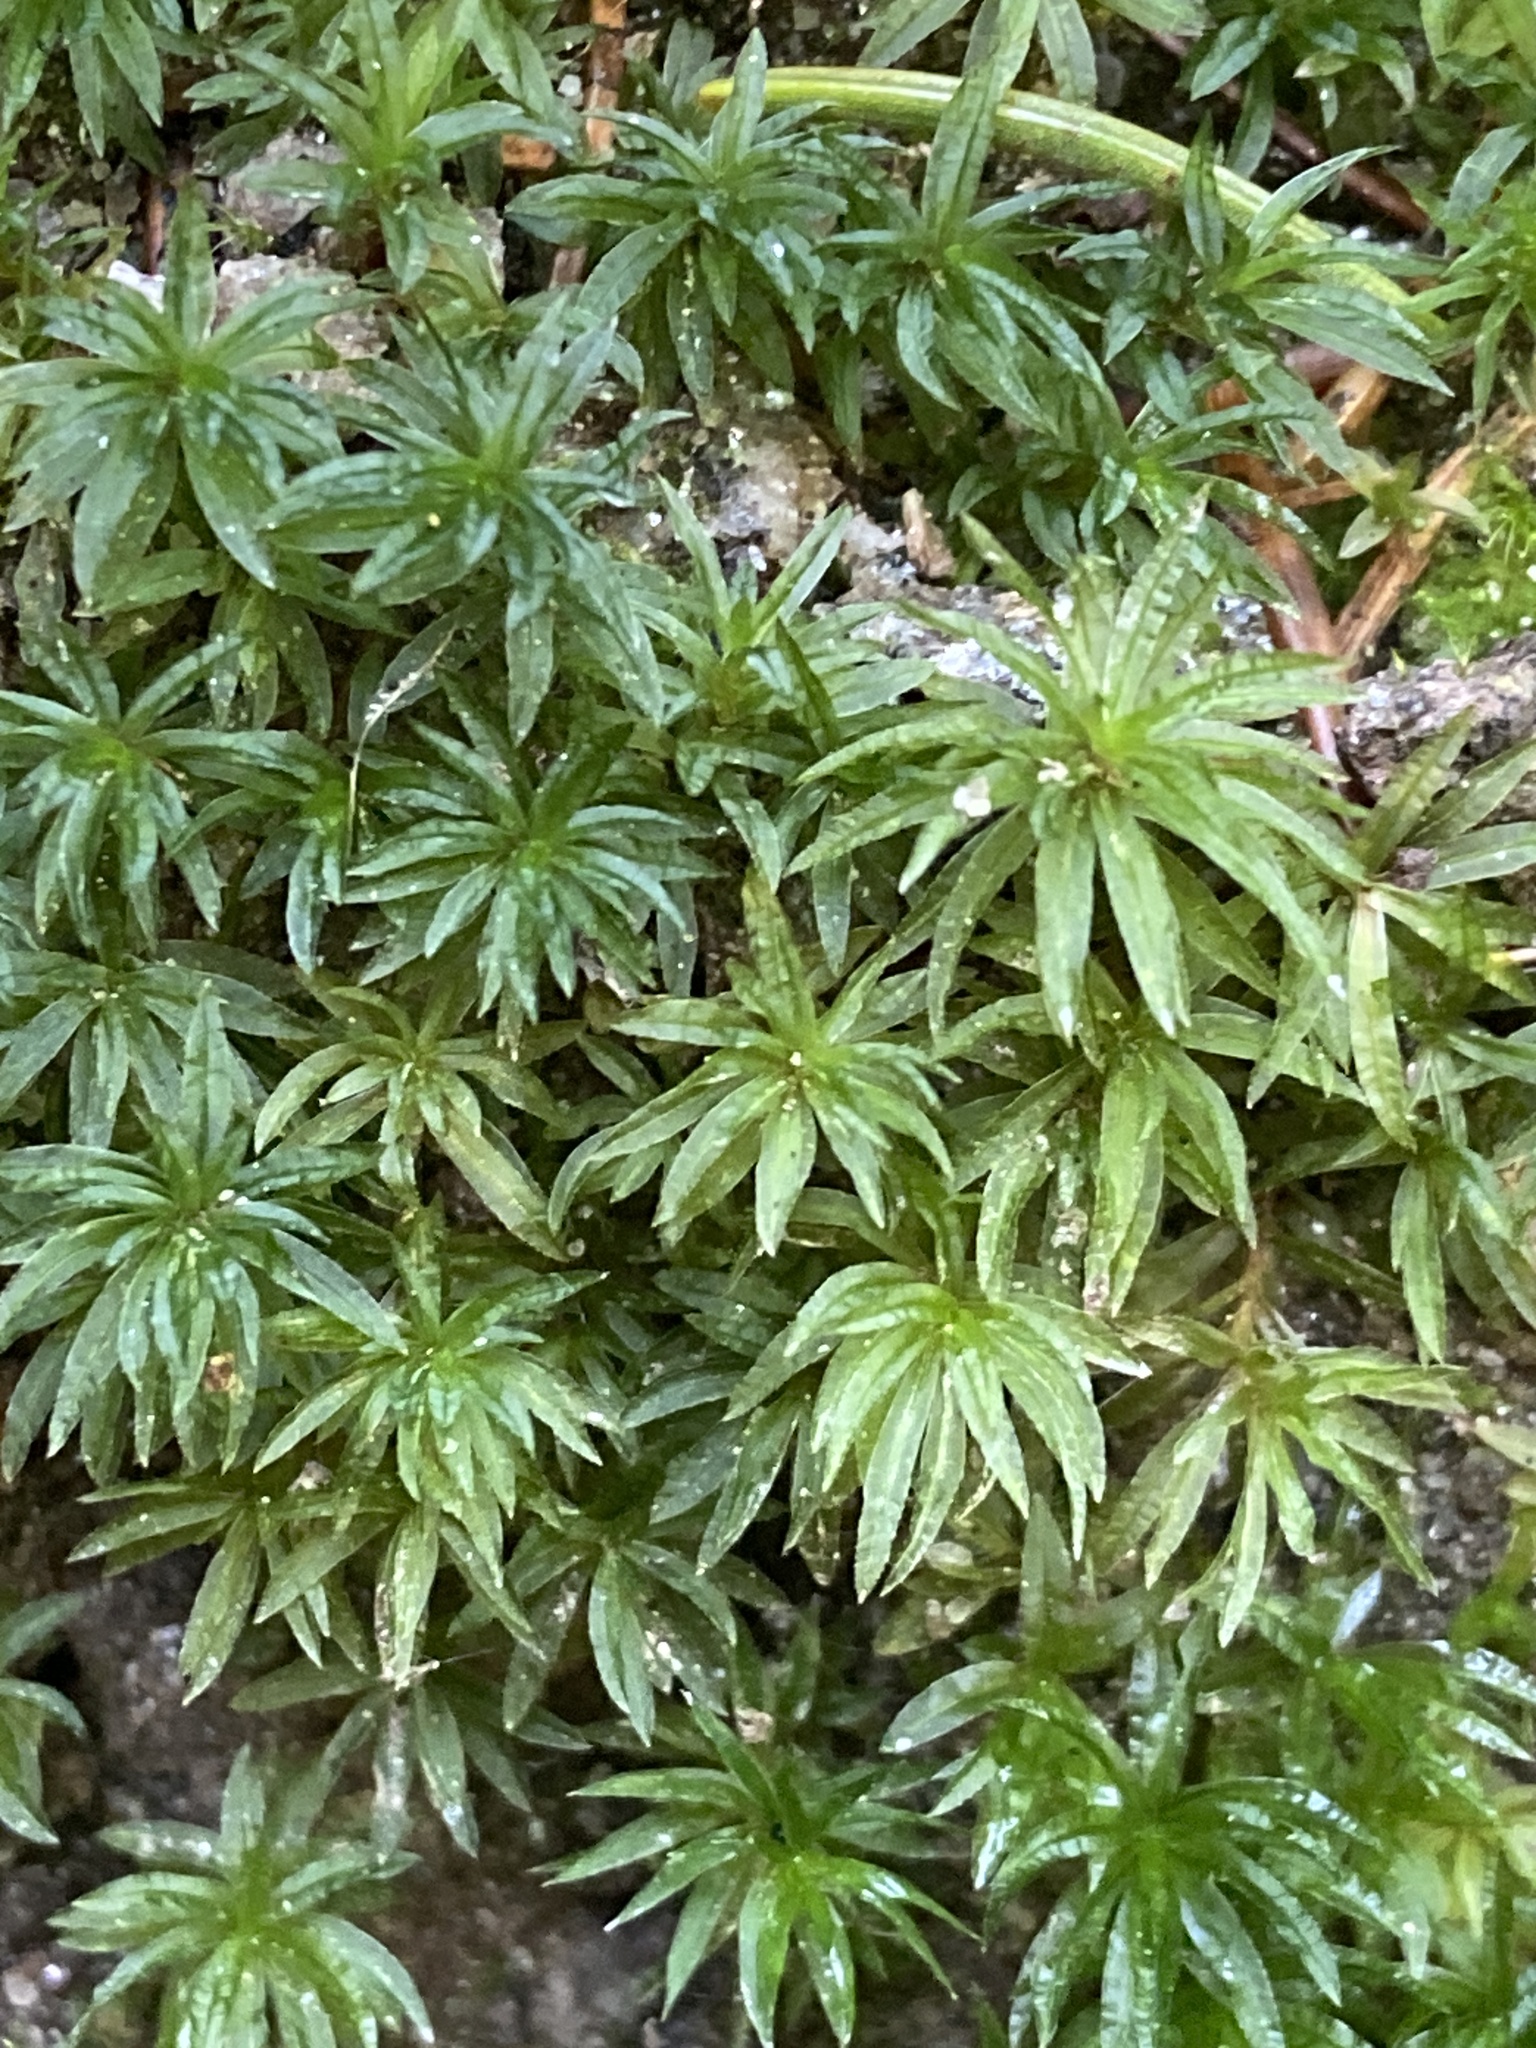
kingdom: Plantae
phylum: Bryophyta
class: Polytrichopsida
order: Polytrichales
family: Polytrichaceae
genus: Atrichum
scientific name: Atrichum undulatum
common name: Common smoothcap
